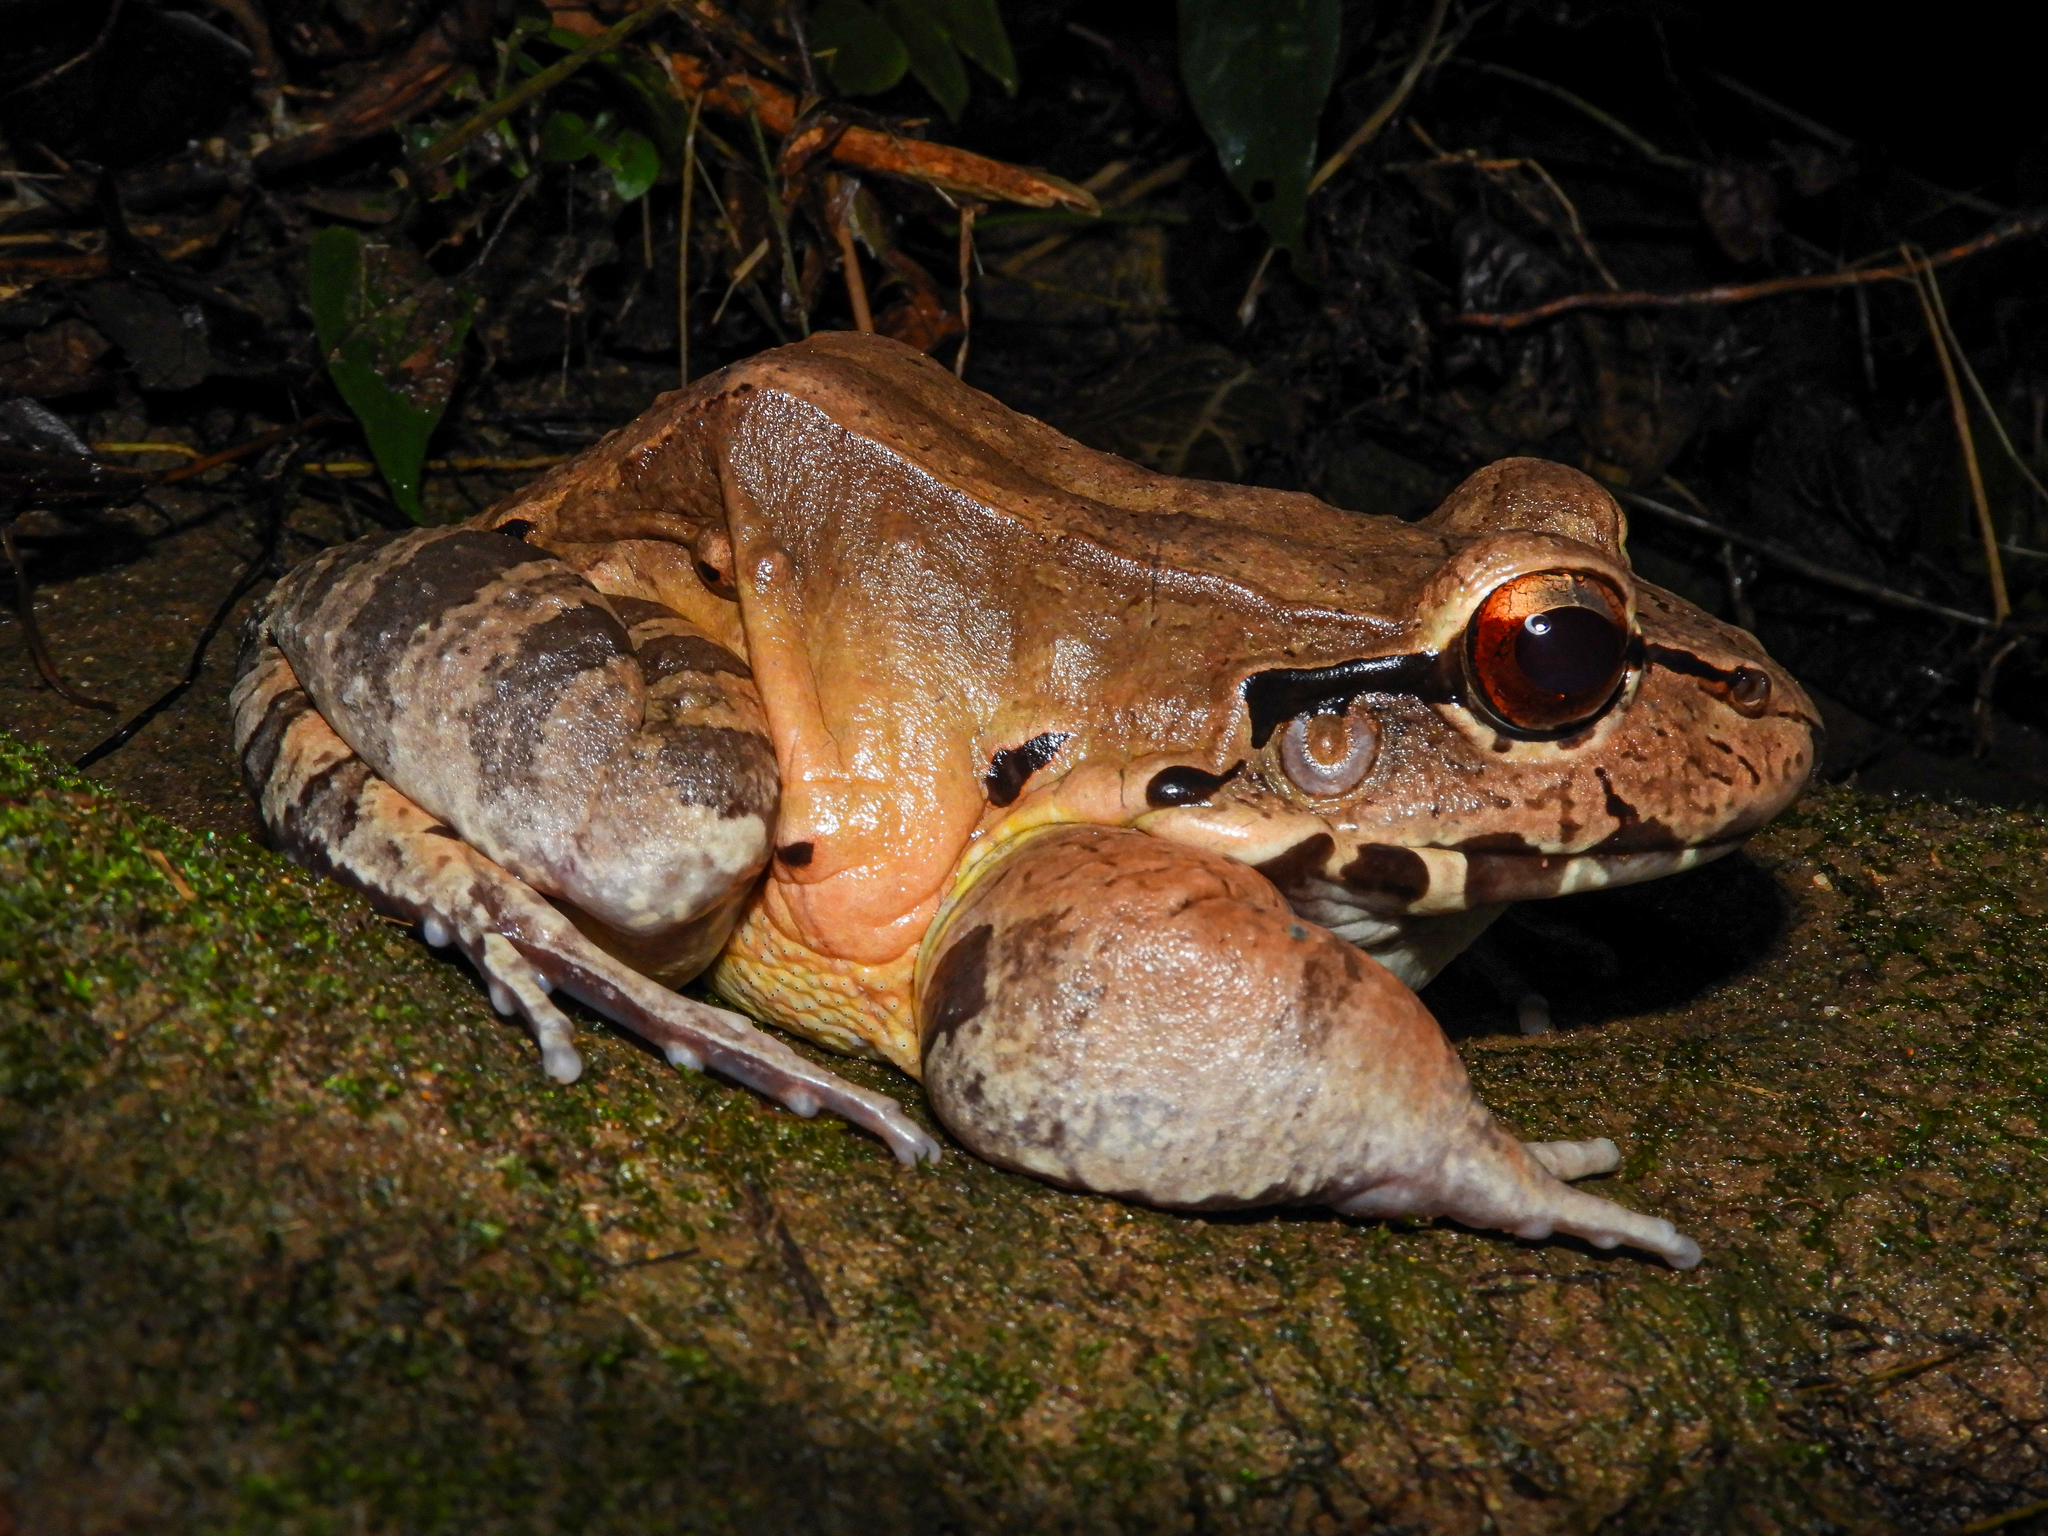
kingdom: Animalia
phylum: Chordata
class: Amphibia
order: Anura
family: Leptodactylidae
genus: Leptodactylus
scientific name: Leptodactylus savagei
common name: Savage's thin-toed frog
